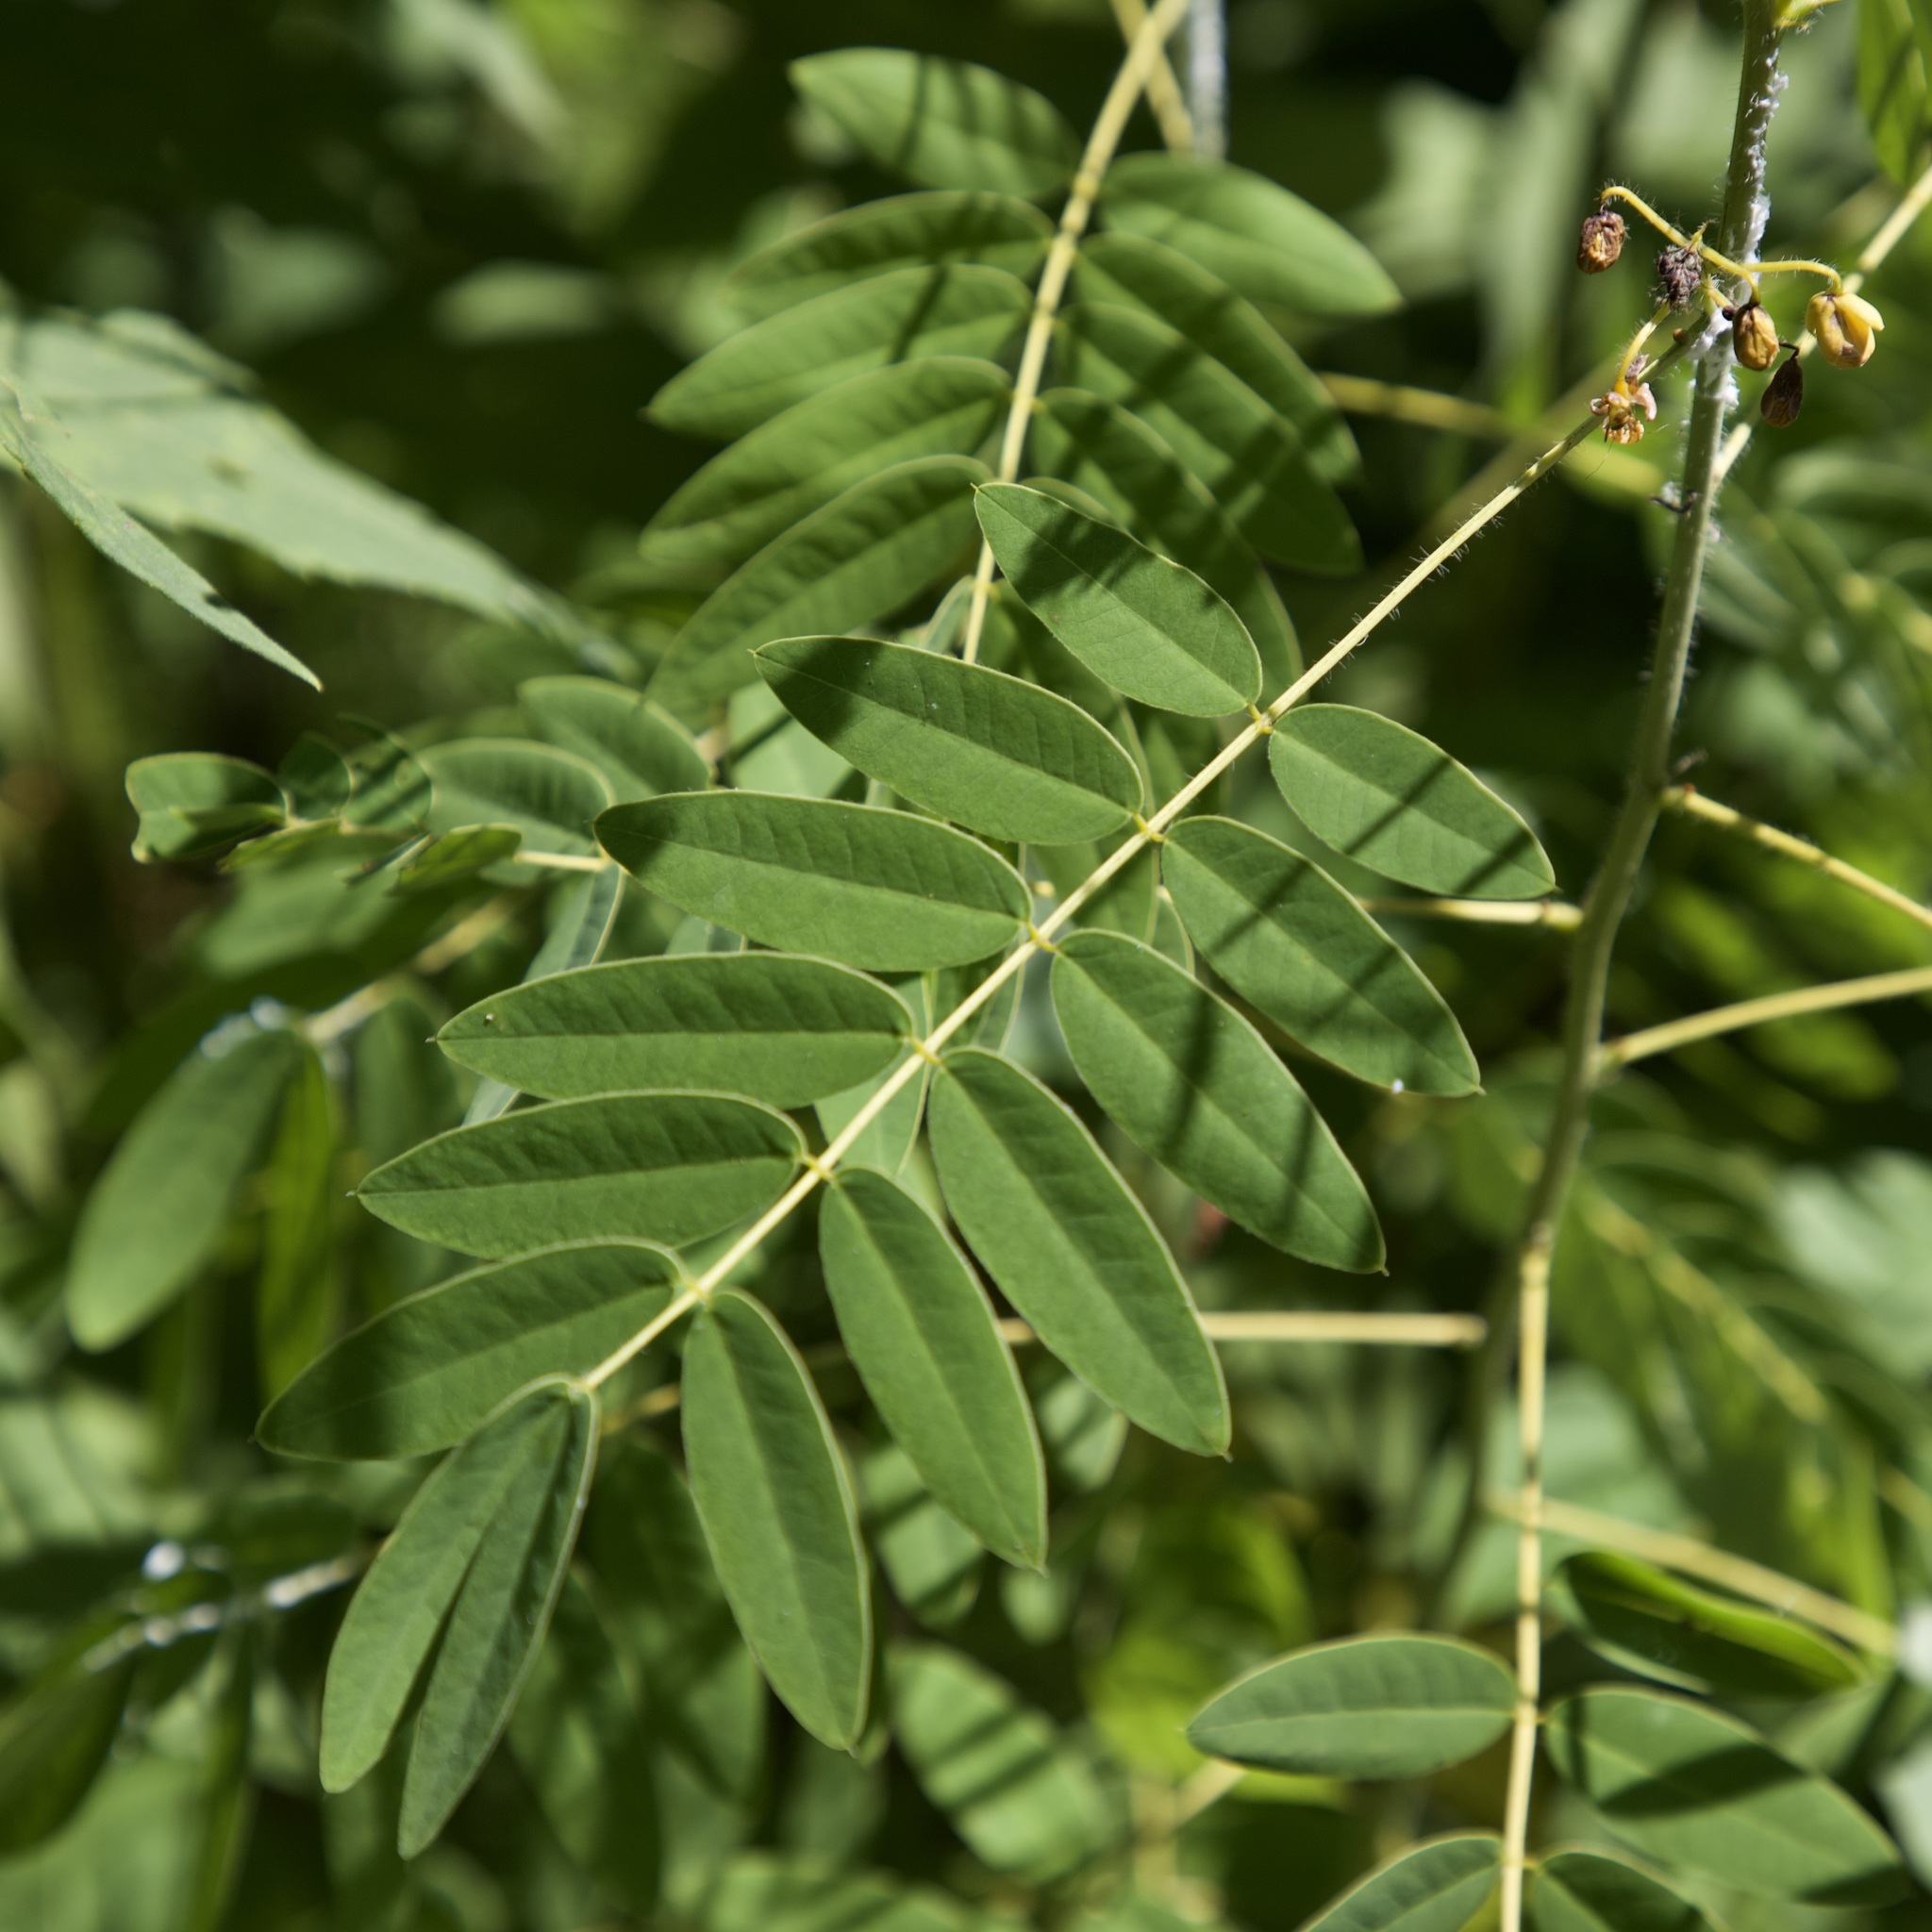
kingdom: Plantae
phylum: Tracheophyta
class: Magnoliopsida
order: Fabales
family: Fabaceae
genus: Senna
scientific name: Senna hebecarpa
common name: Wild senna
